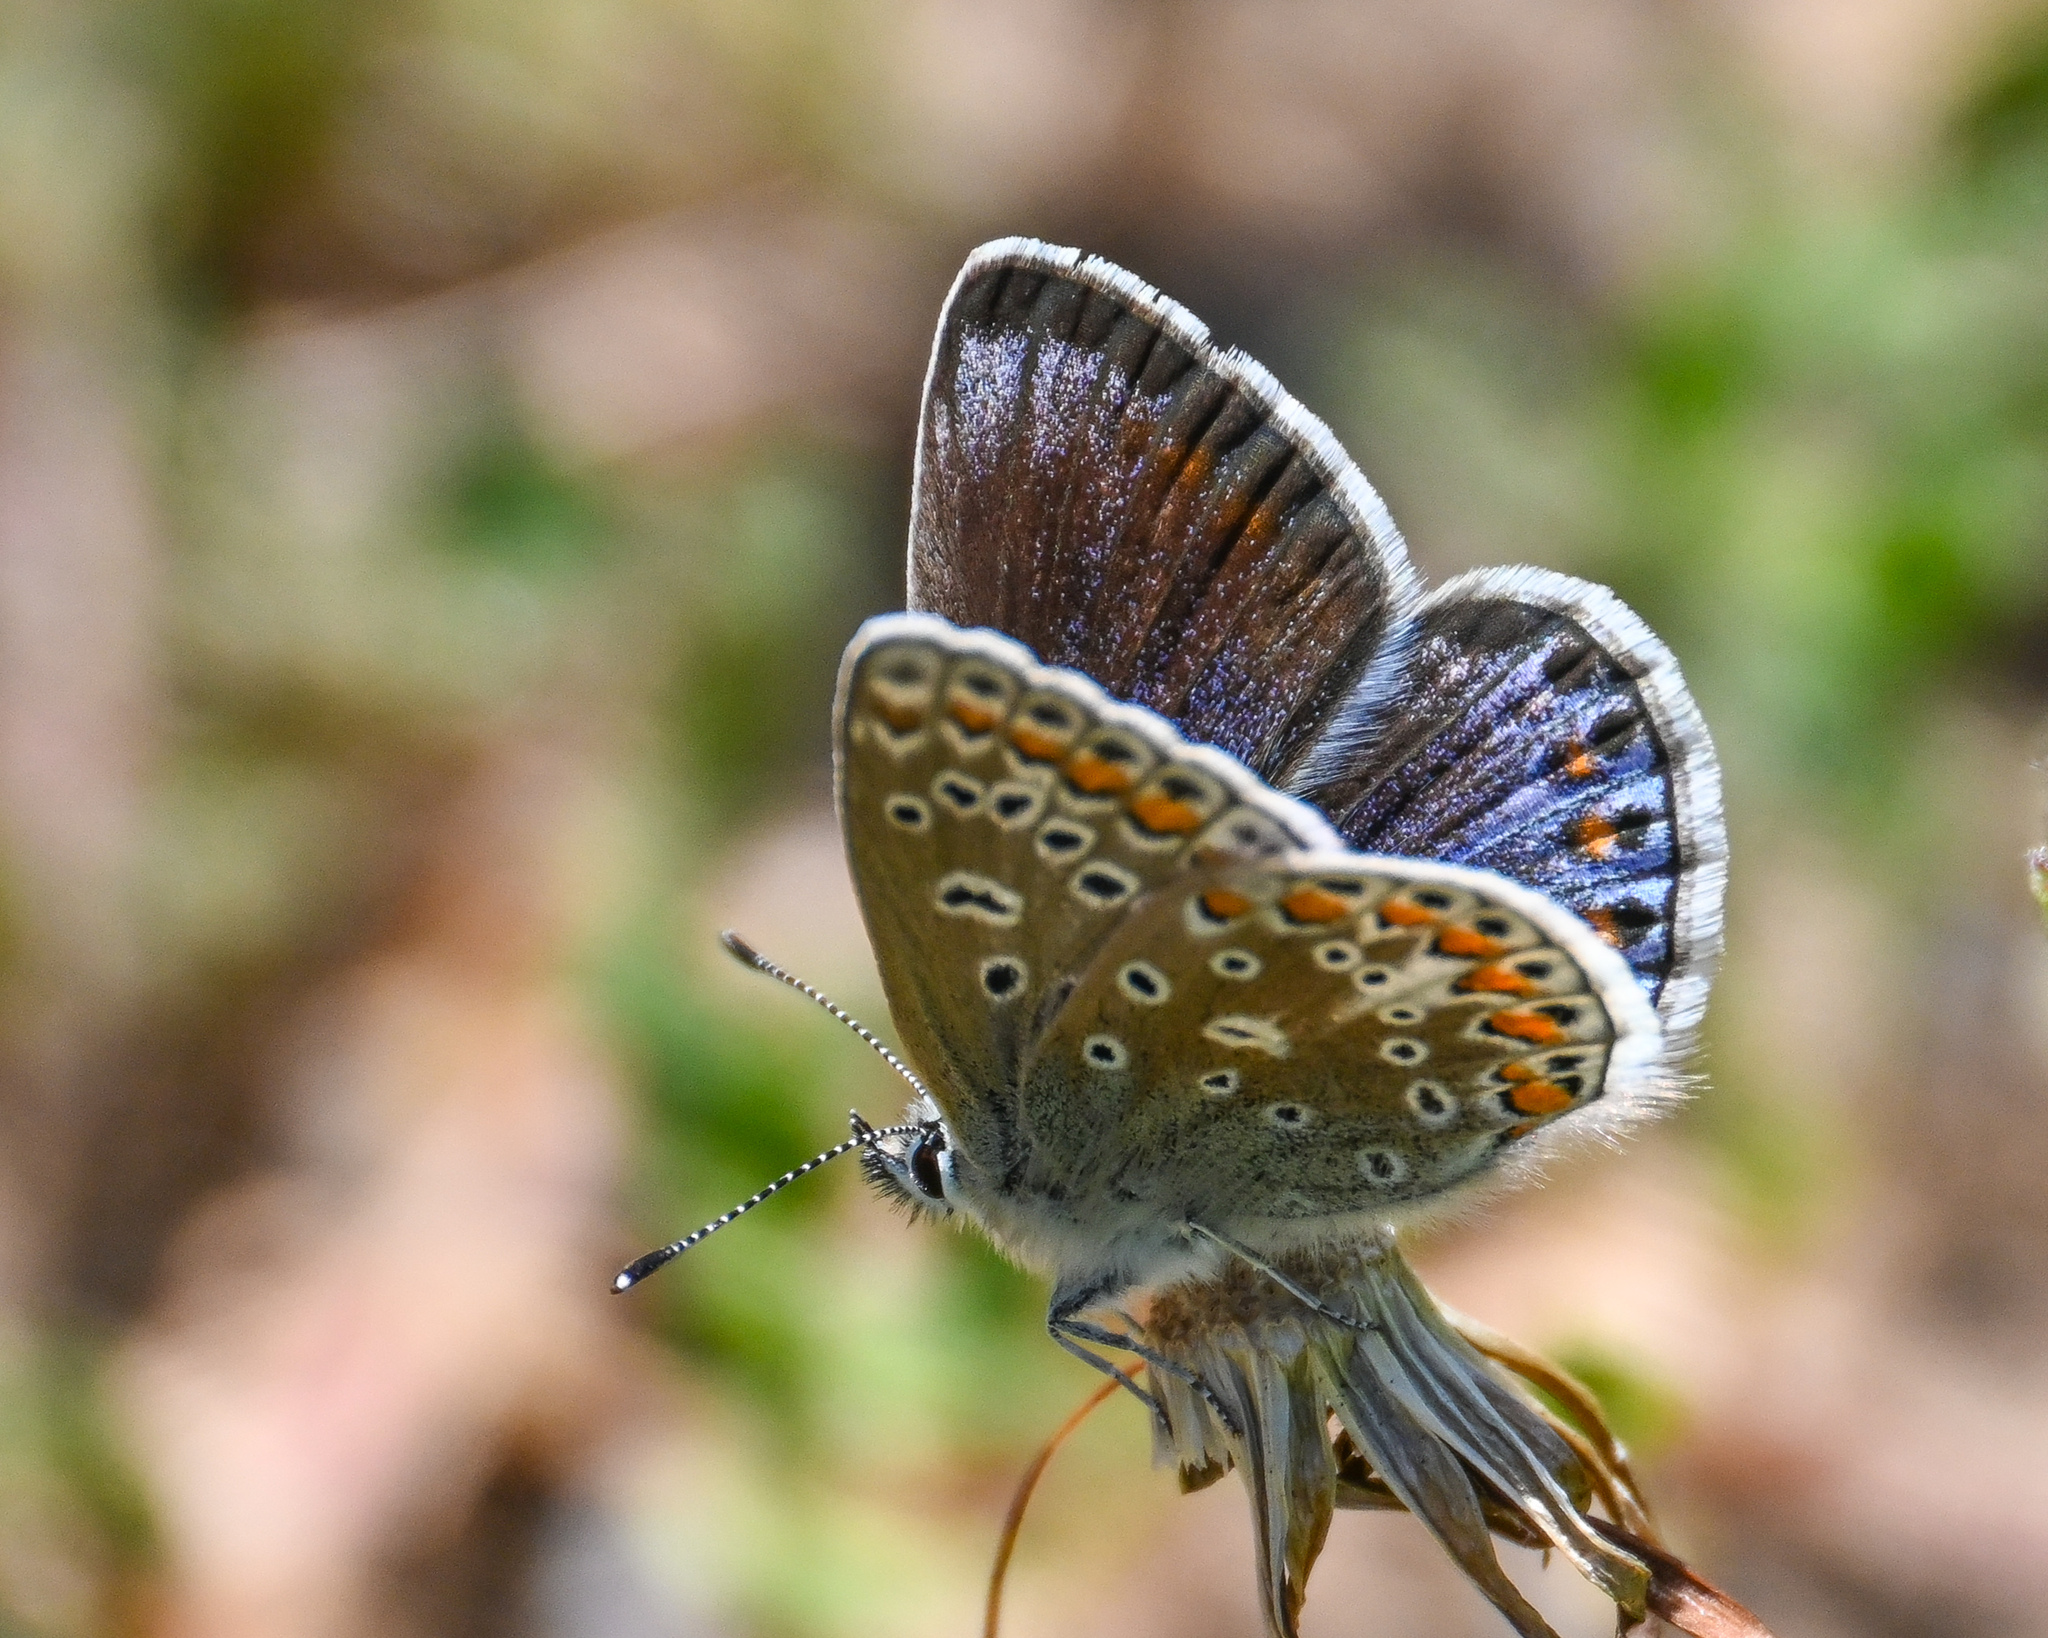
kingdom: Animalia
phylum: Arthropoda
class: Insecta
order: Lepidoptera
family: Lycaenidae
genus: Polyommatus
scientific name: Polyommatus icarus
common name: Common blue
